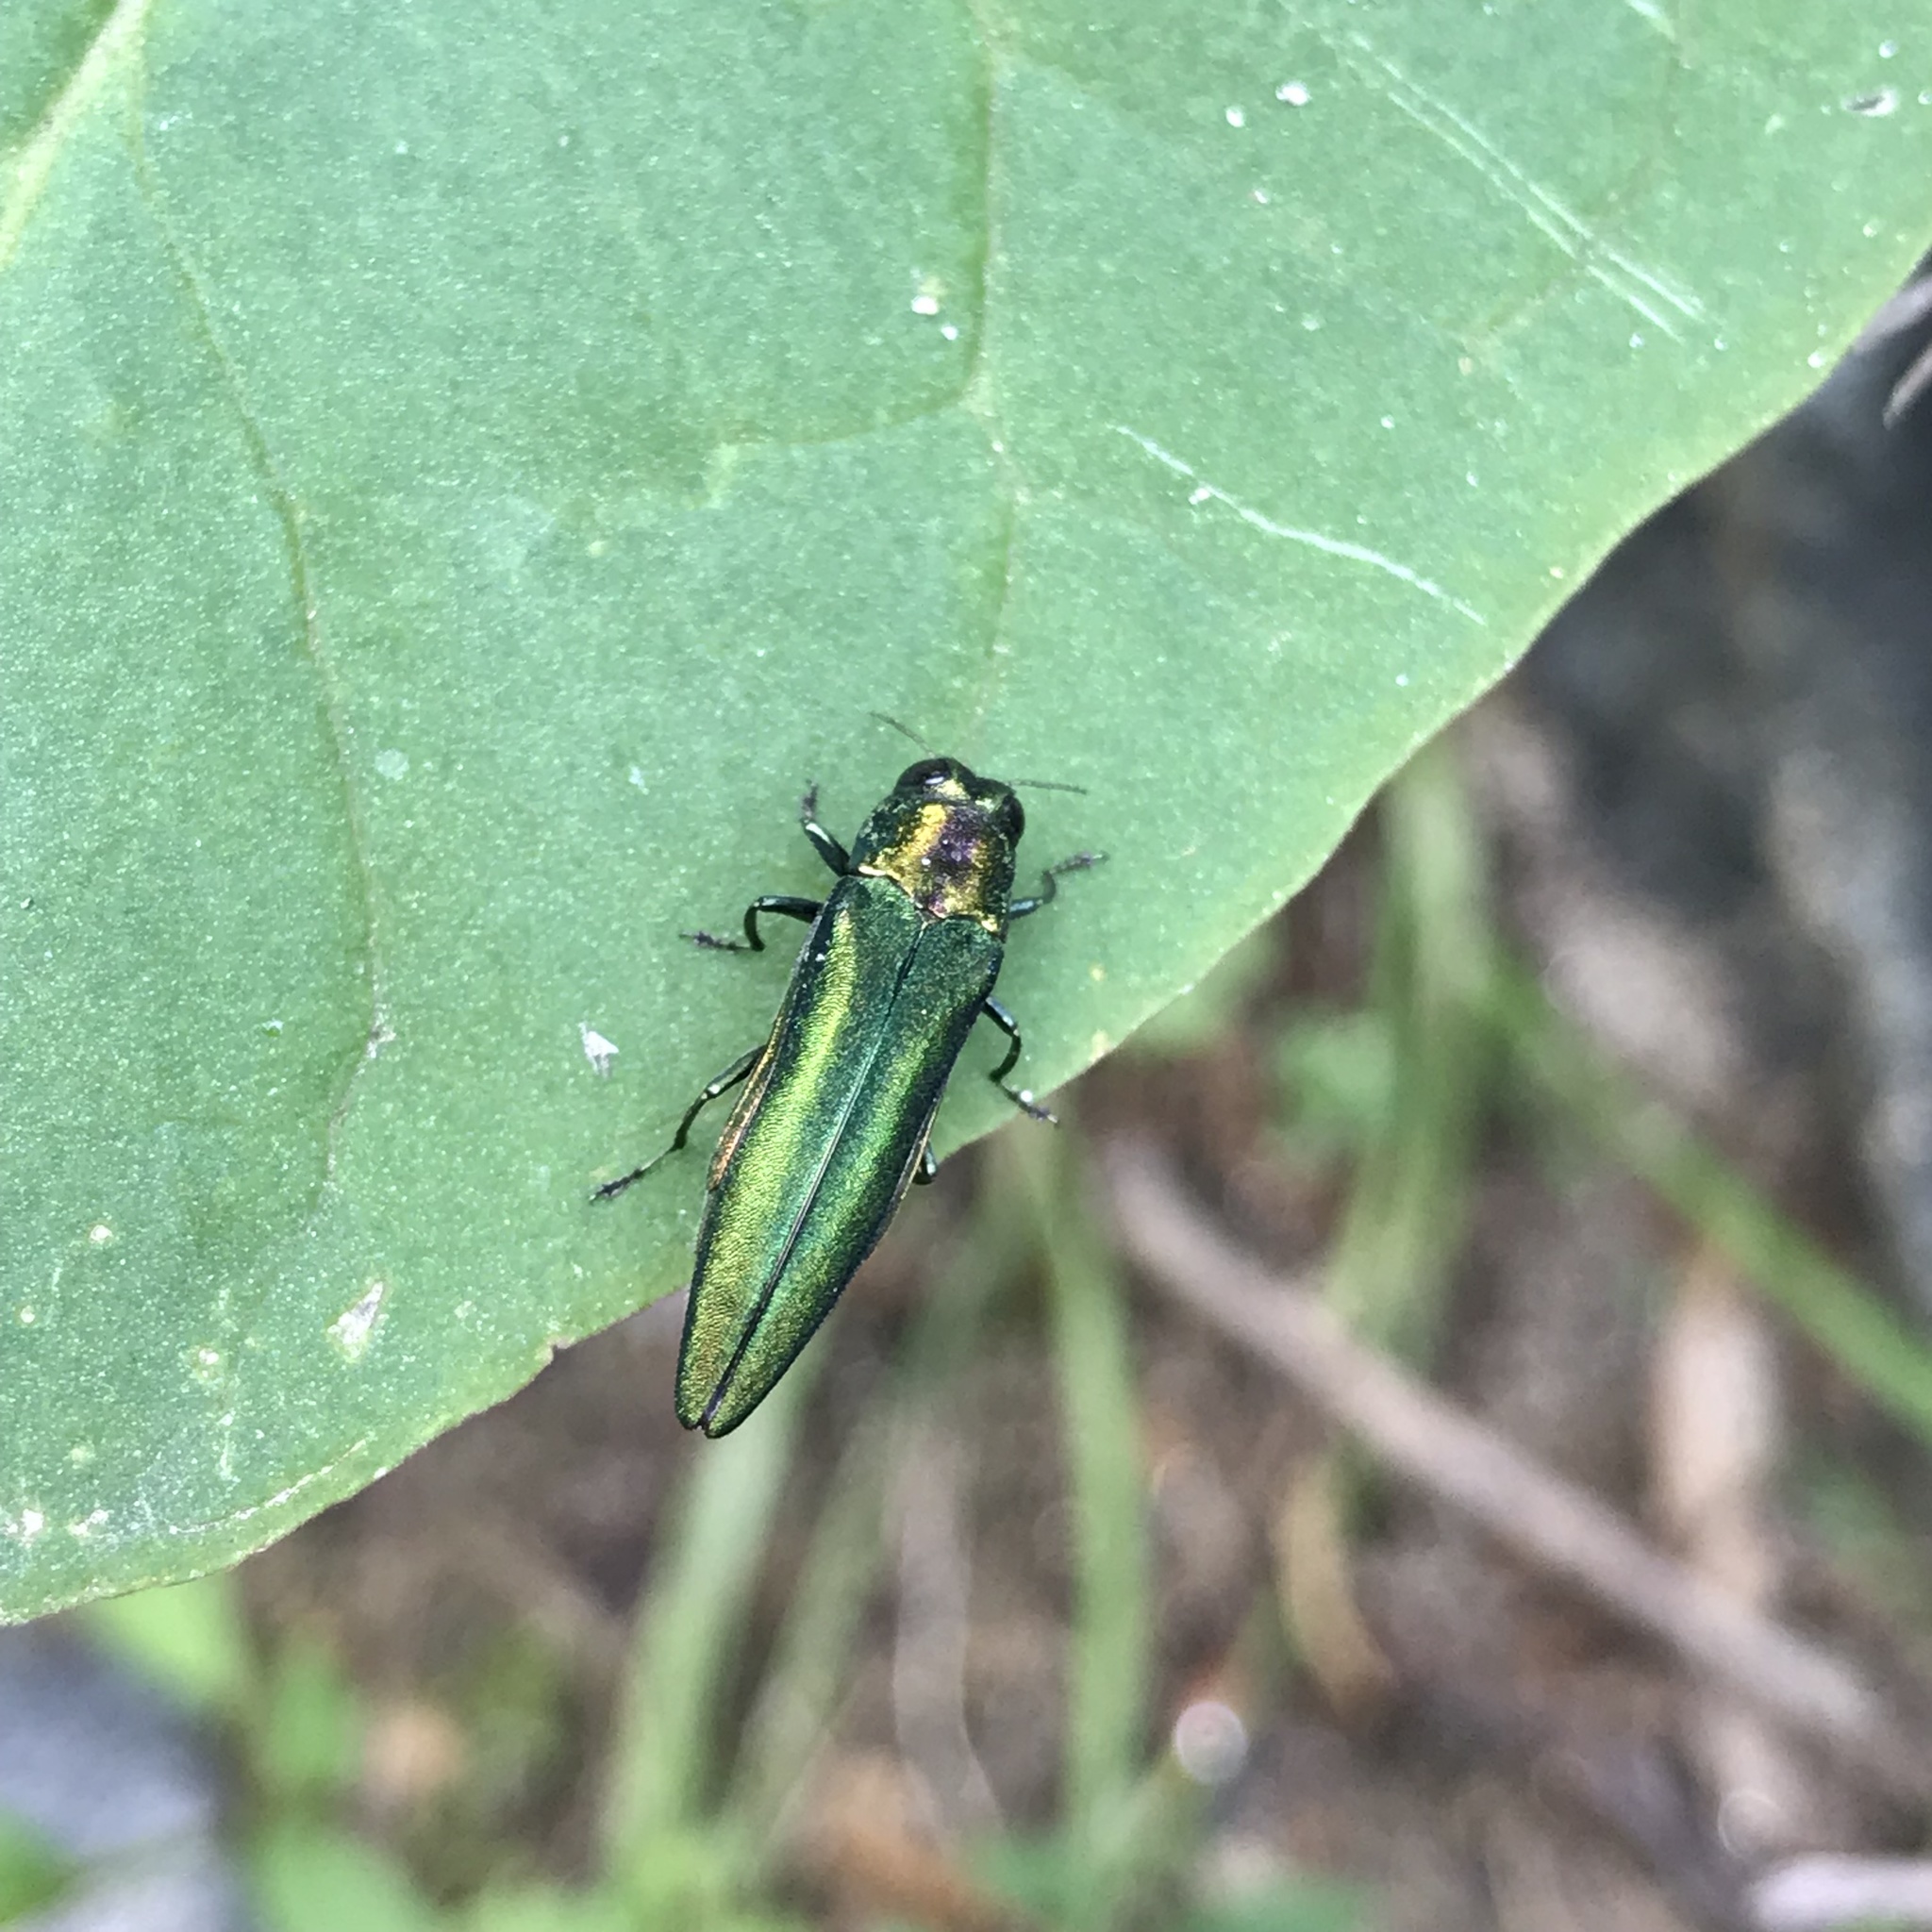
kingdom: Animalia
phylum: Arthropoda
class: Insecta
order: Coleoptera
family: Buprestidae
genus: Agrilus
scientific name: Agrilus planipennis
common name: Emerald ash borer
